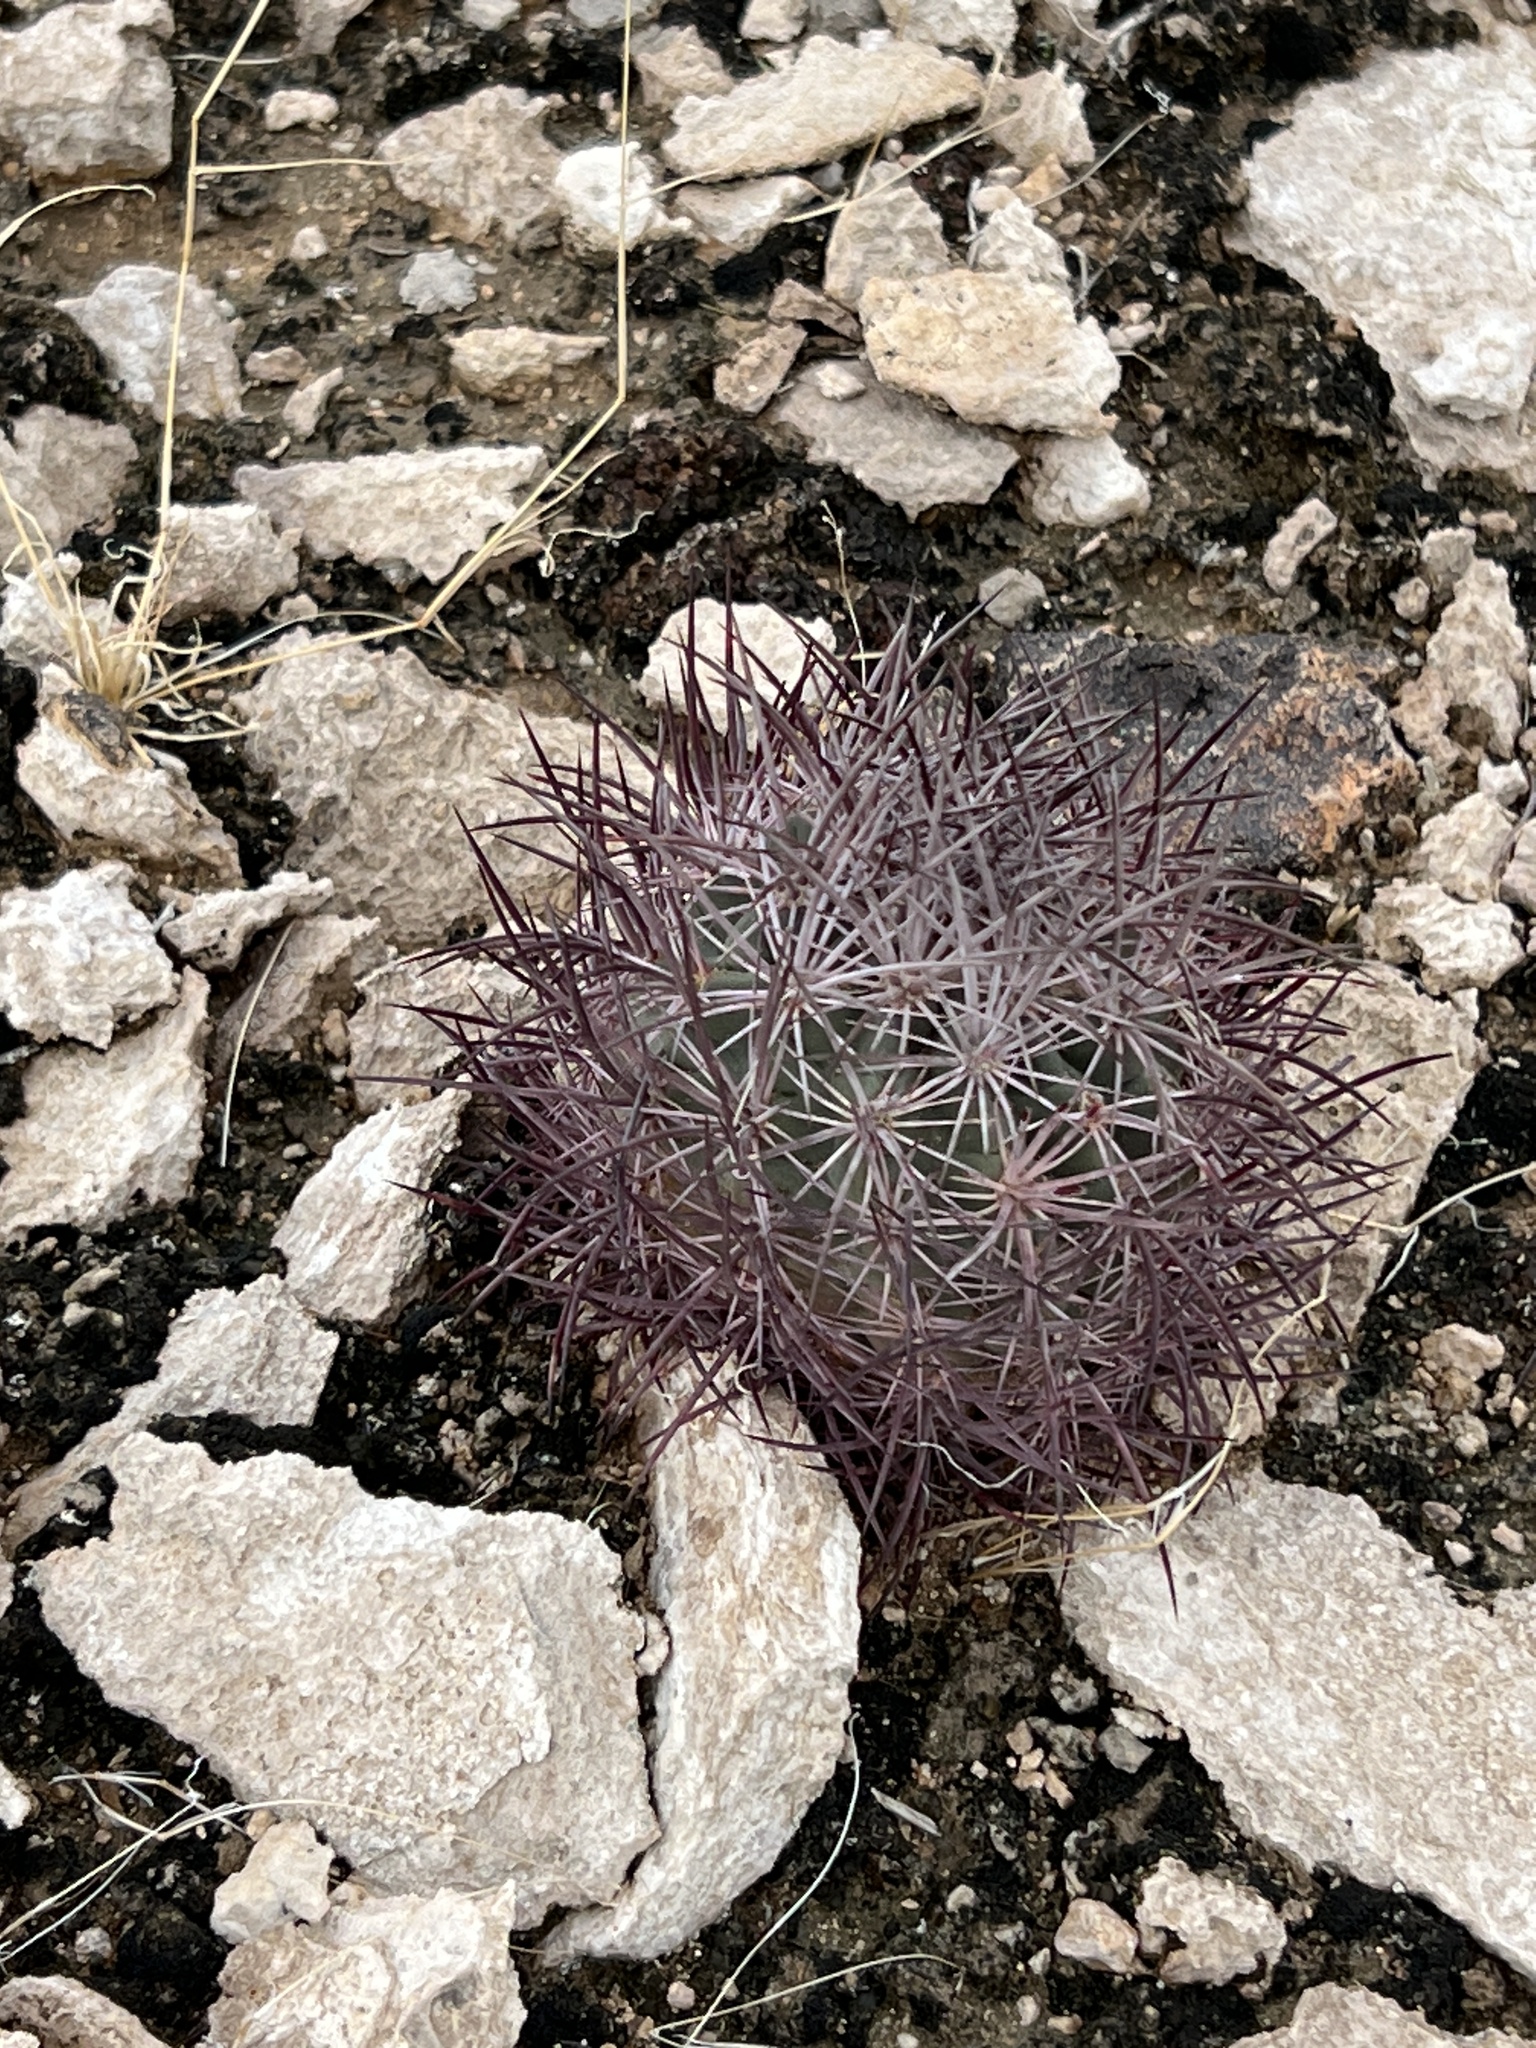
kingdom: Plantae
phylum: Tracheophyta
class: Magnoliopsida
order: Caryophyllales
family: Cactaceae
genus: Sclerocactus
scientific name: Sclerocactus johnsonii
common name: Eight-spine fishhook cactus
